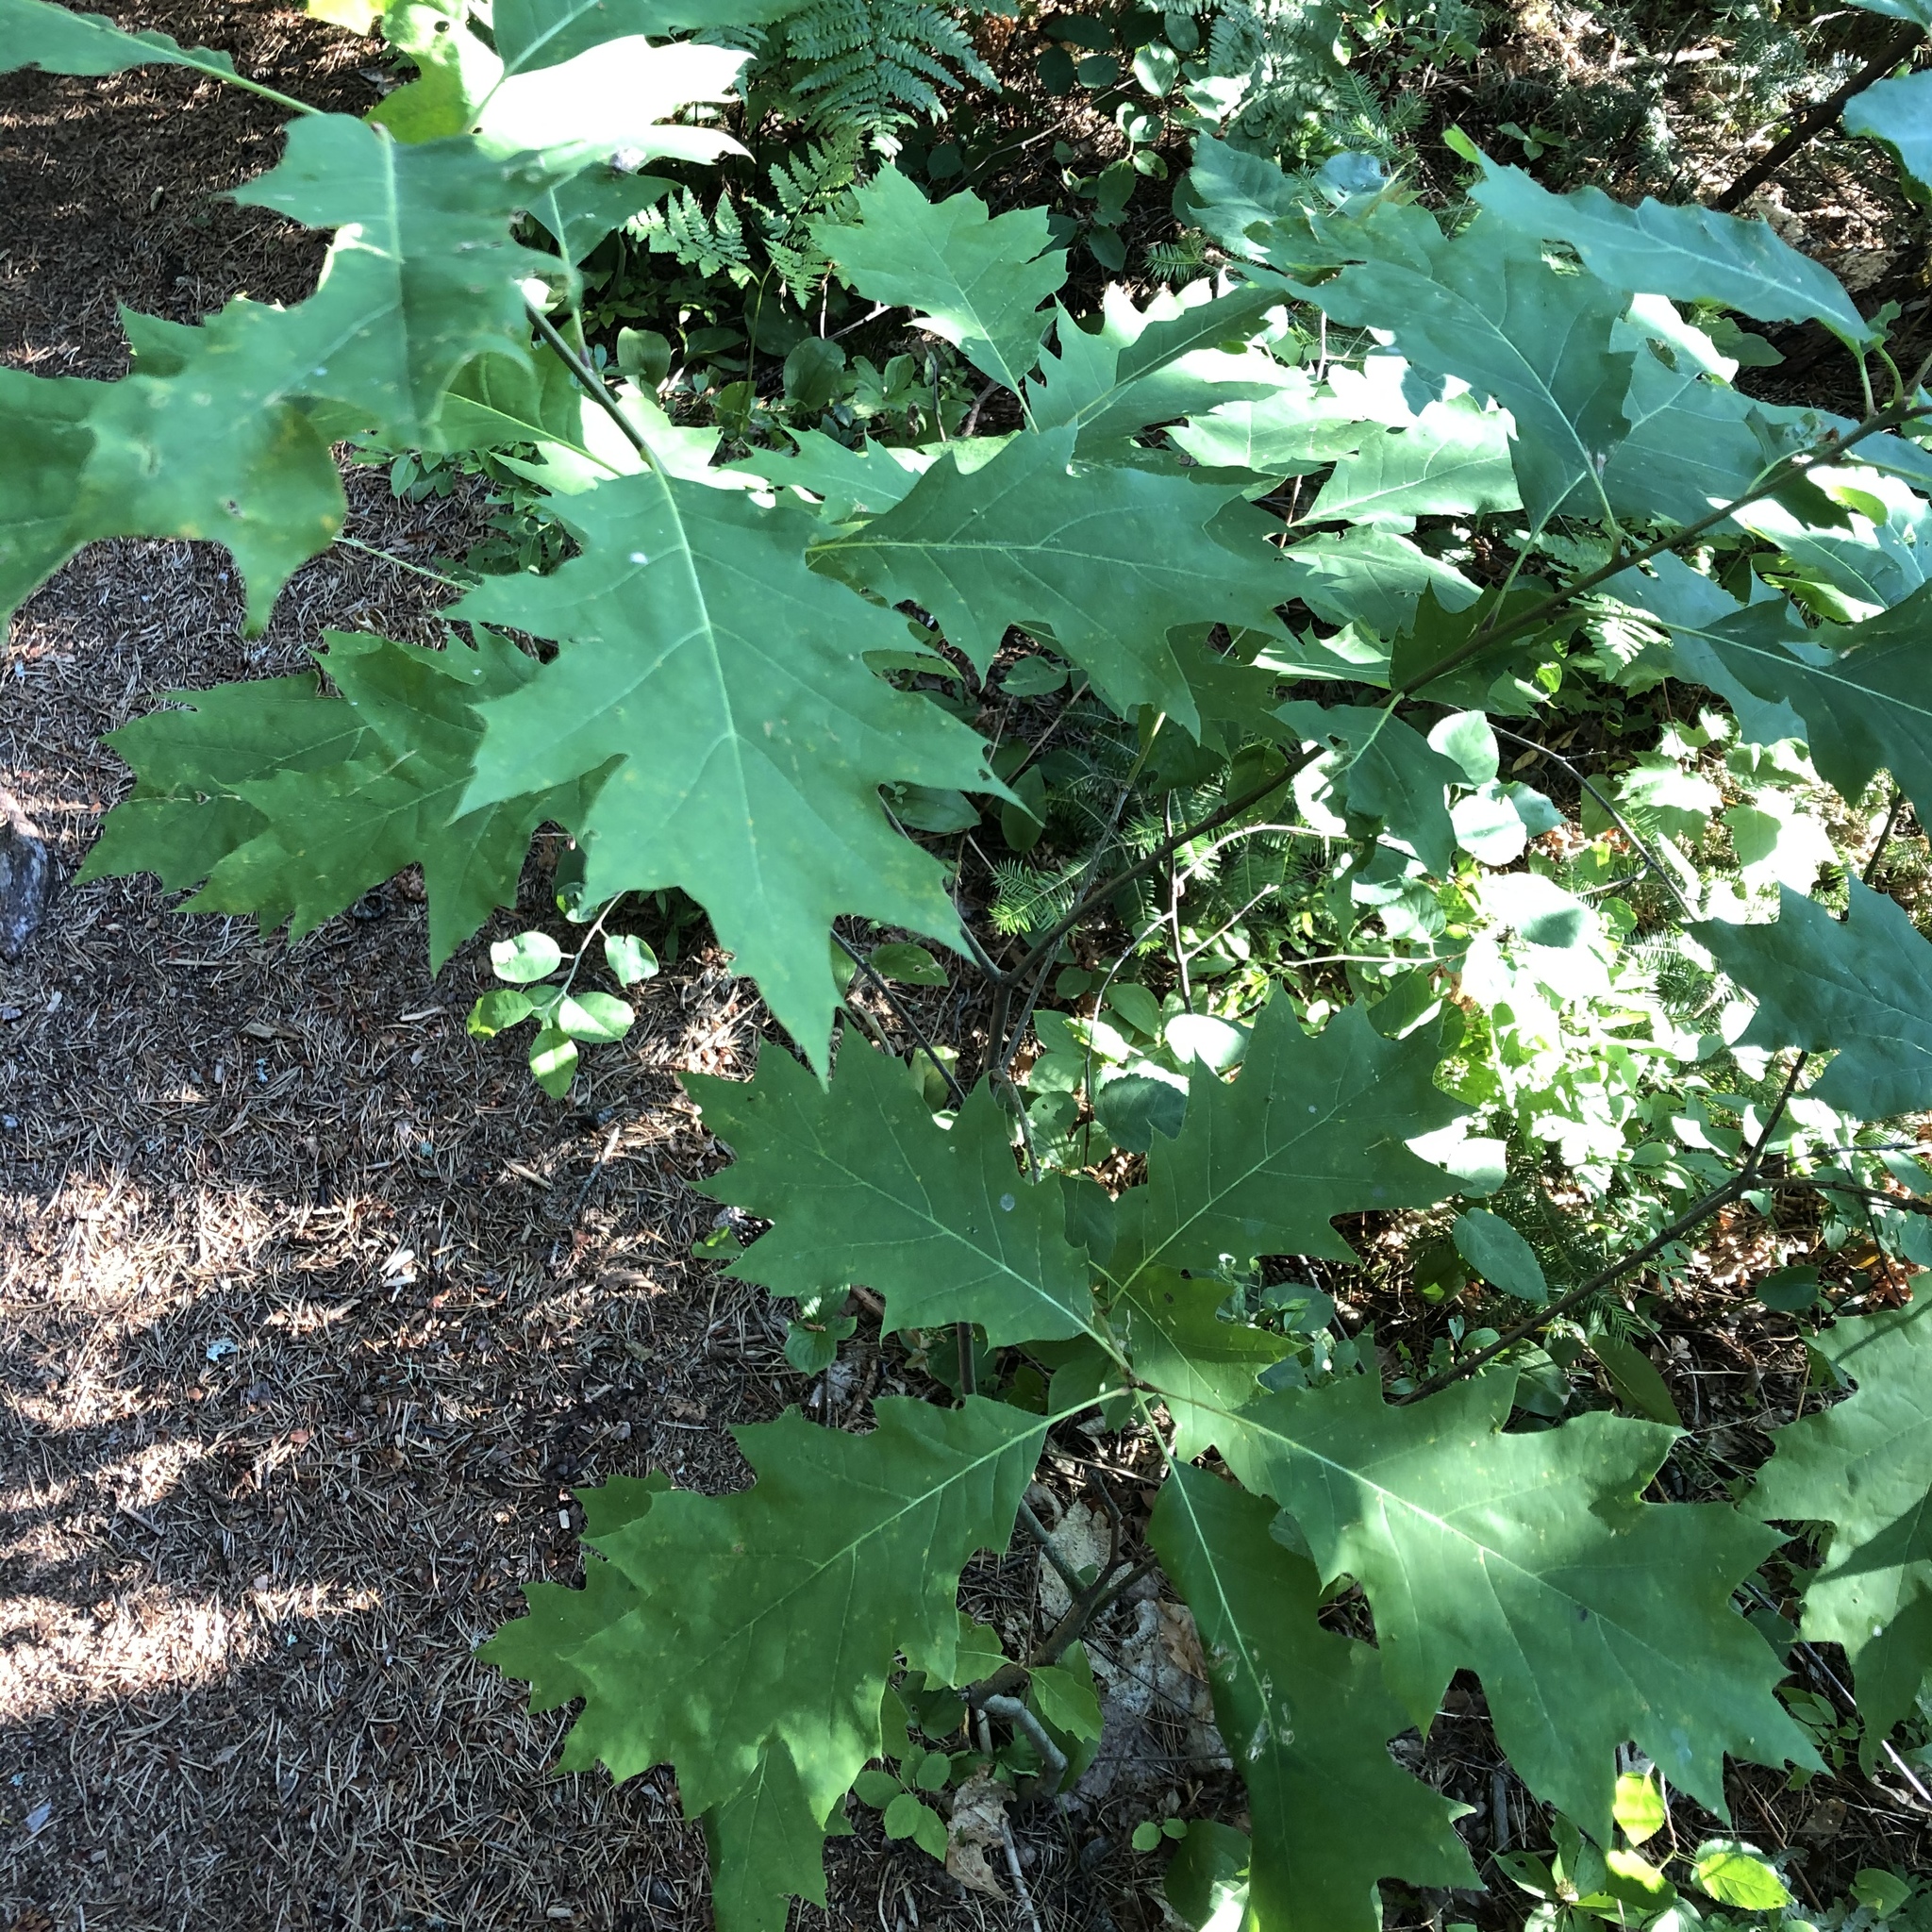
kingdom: Plantae
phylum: Tracheophyta
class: Magnoliopsida
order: Fagales
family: Fagaceae
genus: Quercus
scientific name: Quercus rubra
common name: Red oak
